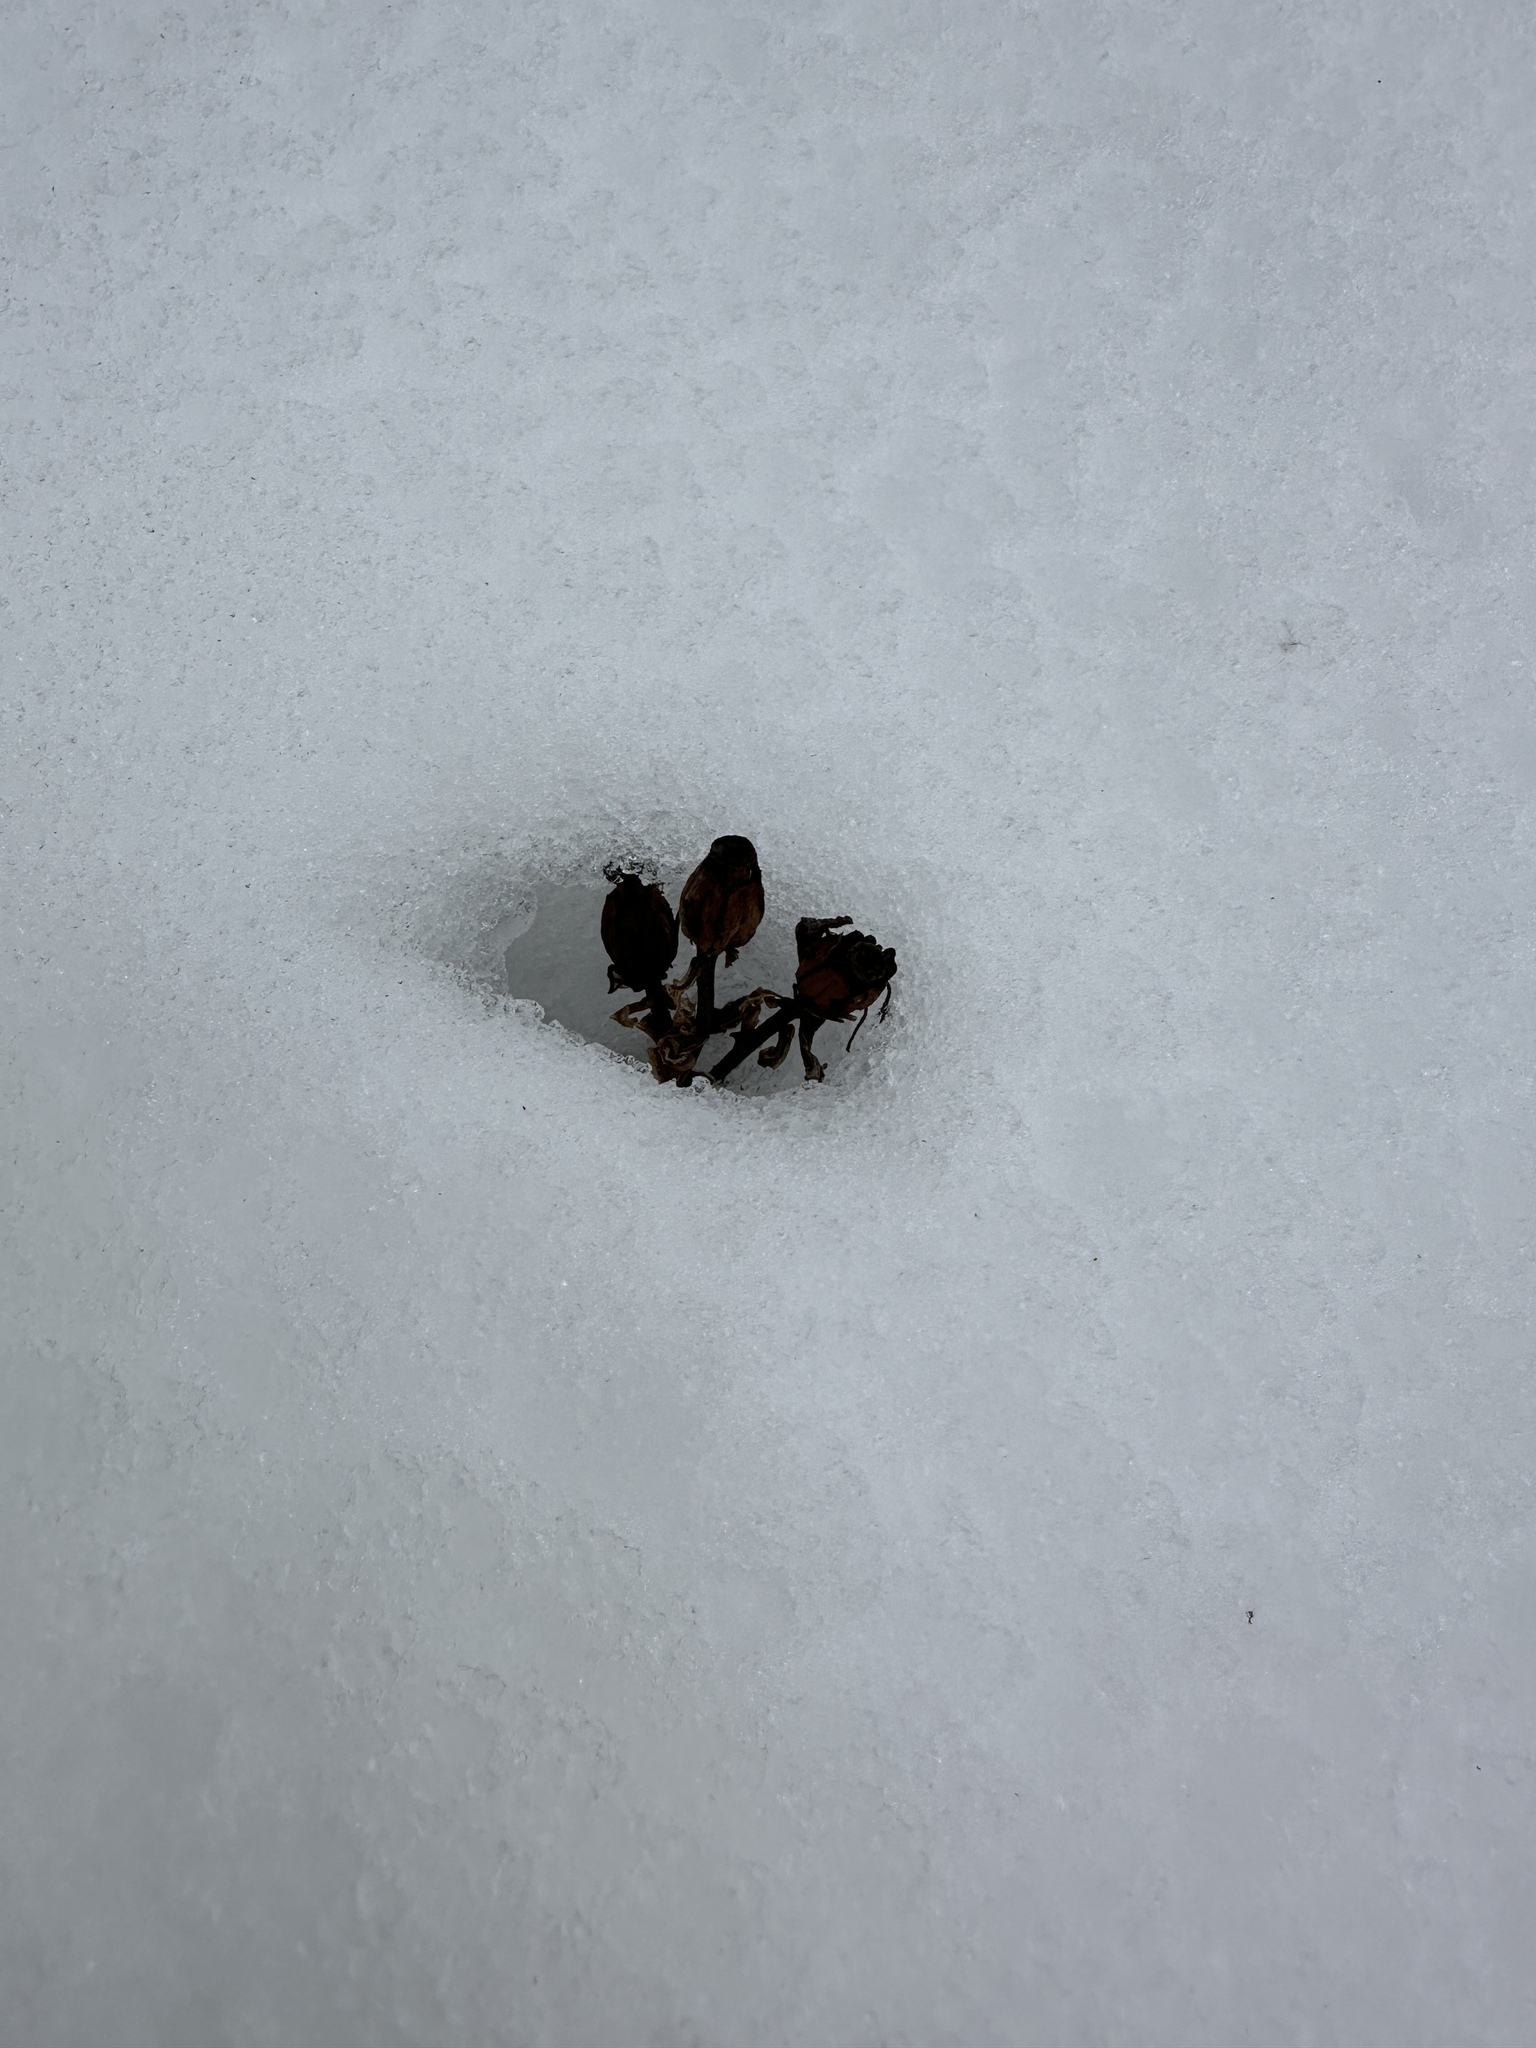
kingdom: Plantae
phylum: Tracheophyta
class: Magnoliopsida
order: Ericales
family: Ericaceae
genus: Monotropa
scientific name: Monotropa uniflora
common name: Convulsion root
